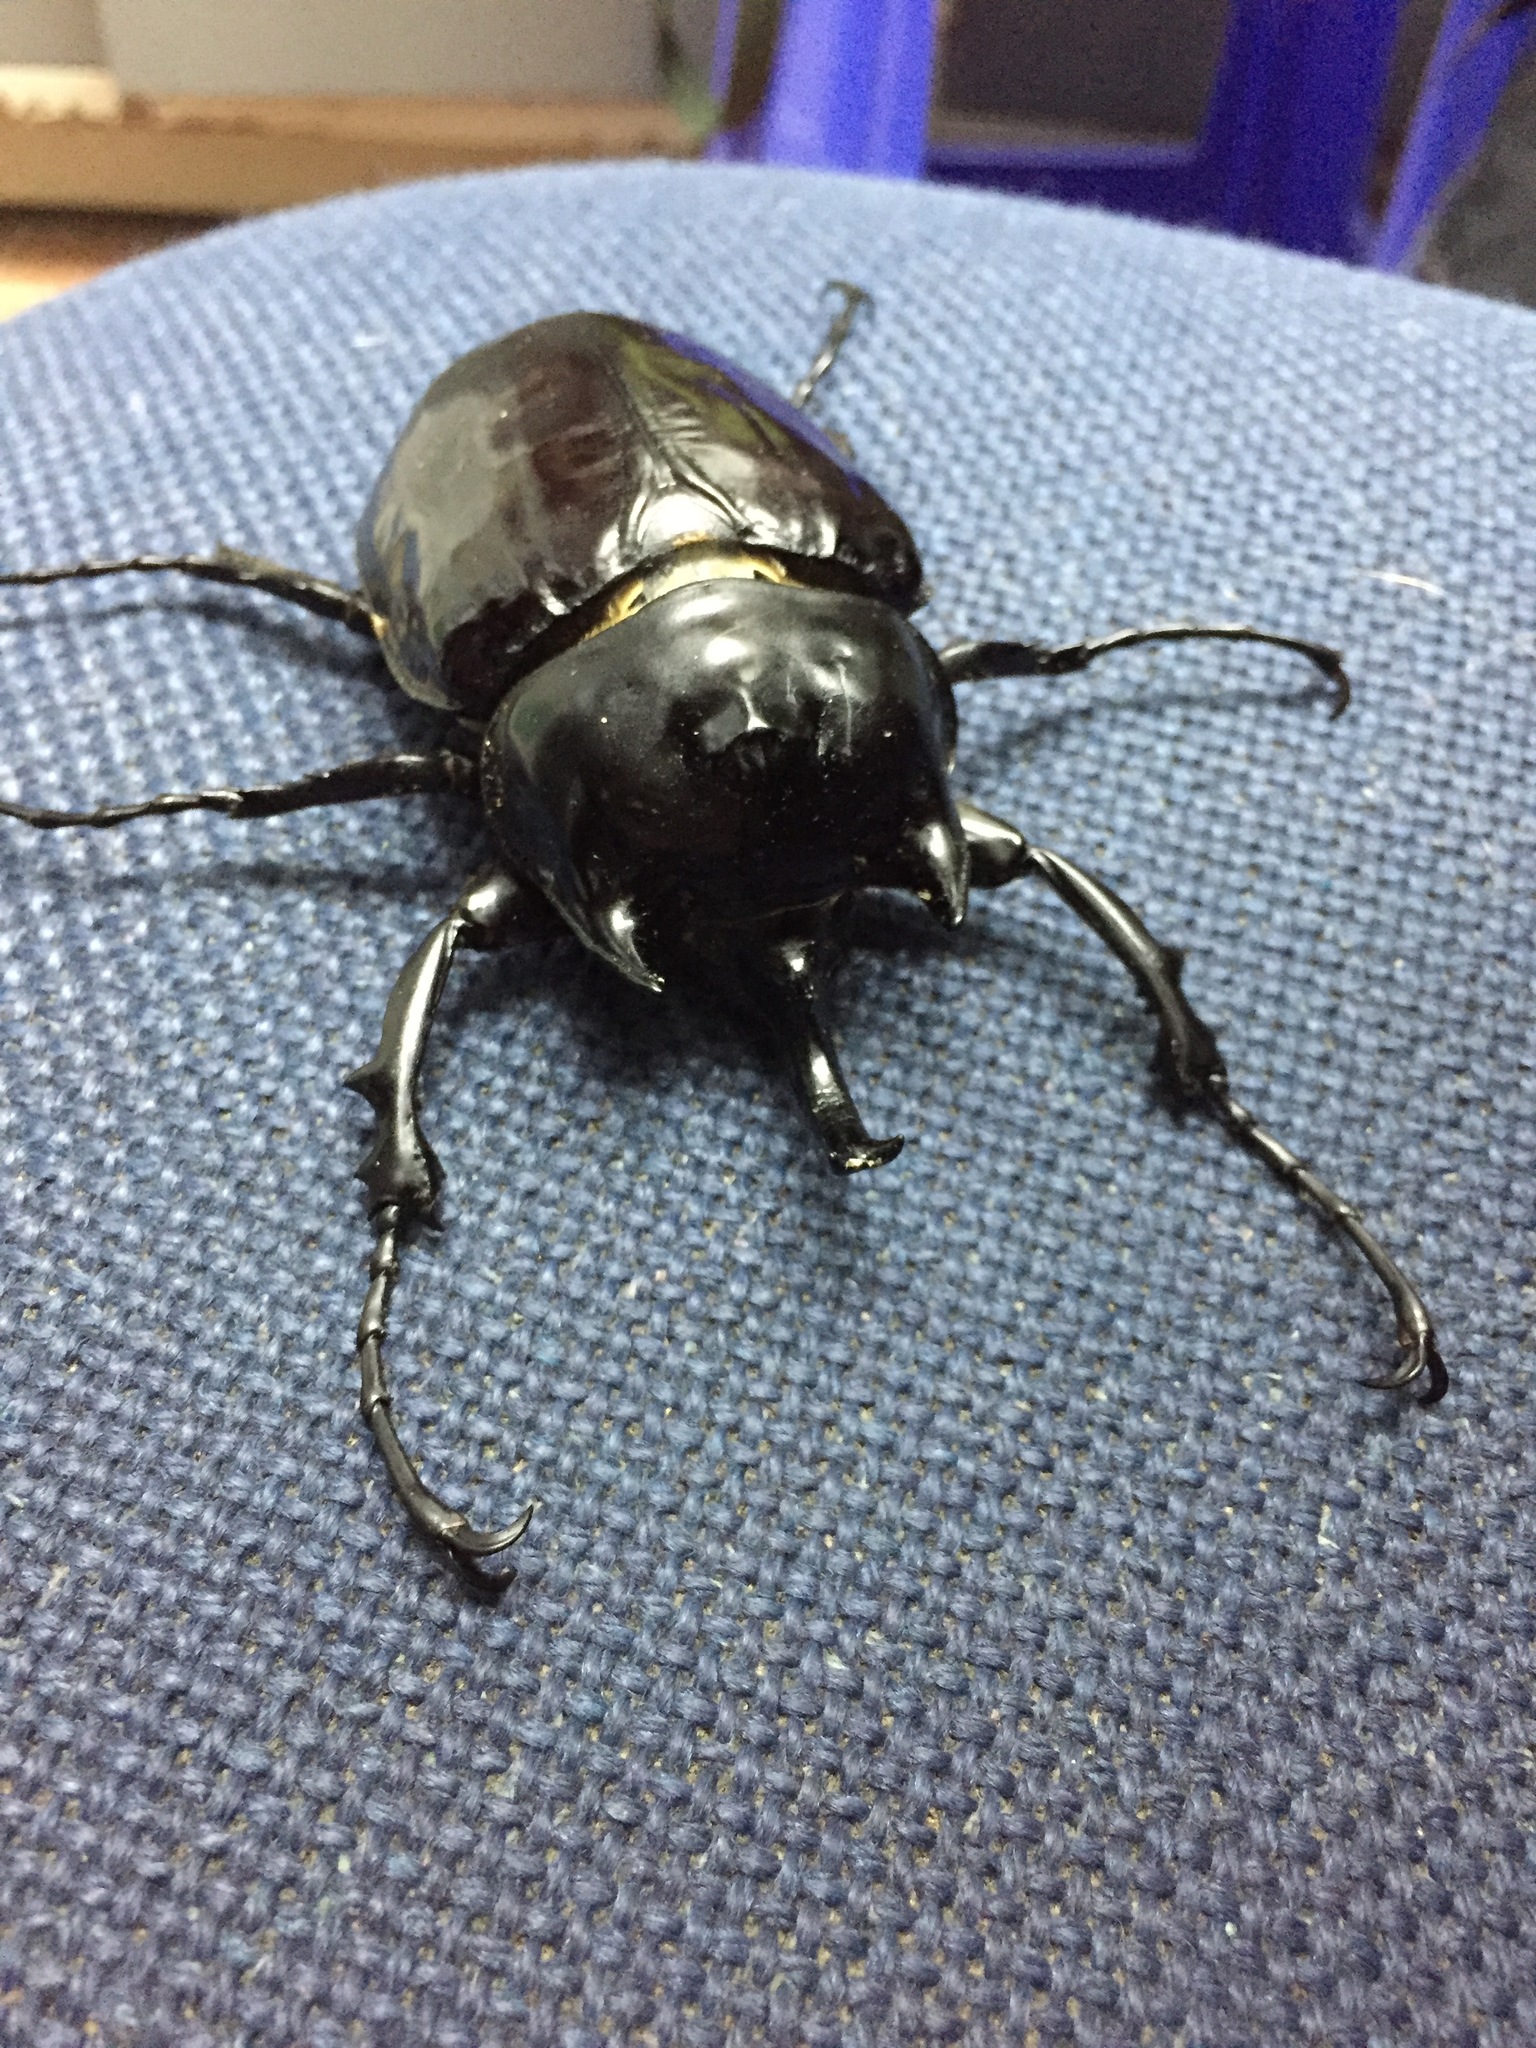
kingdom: Animalia
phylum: Arthropoda
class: Insecta
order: Coleoptera
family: Scarabaeidae
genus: Megasoma
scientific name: Megasoma janus
